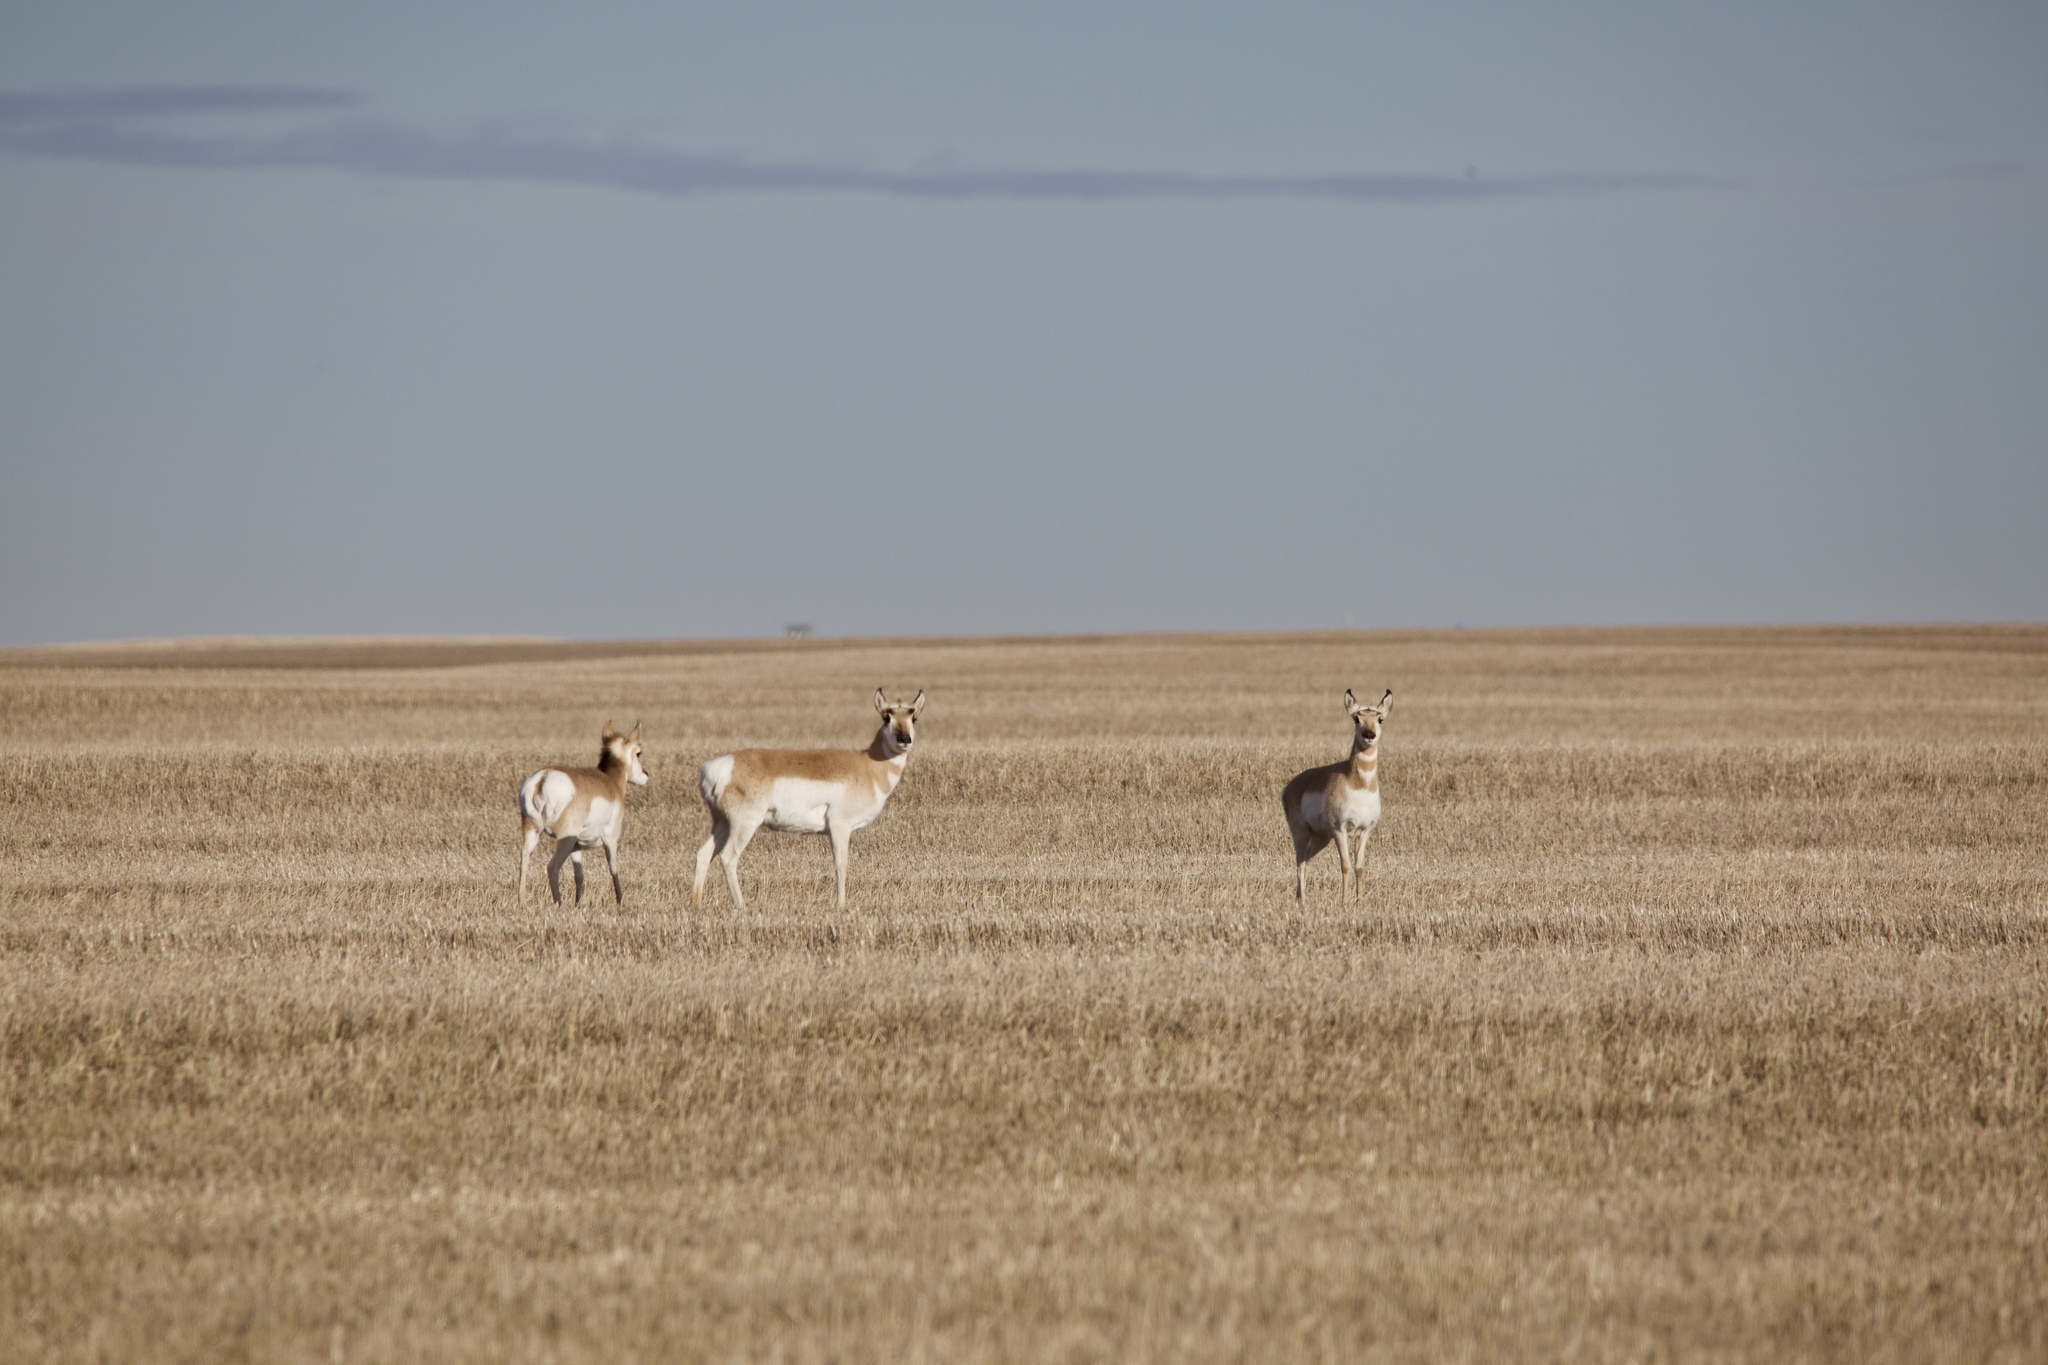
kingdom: Animalia
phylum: Chordata
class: Mammalia
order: Artiodactyla
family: Antilocapridae
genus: Antilocapra
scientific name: Antilocapra americana
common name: Pronghorn
